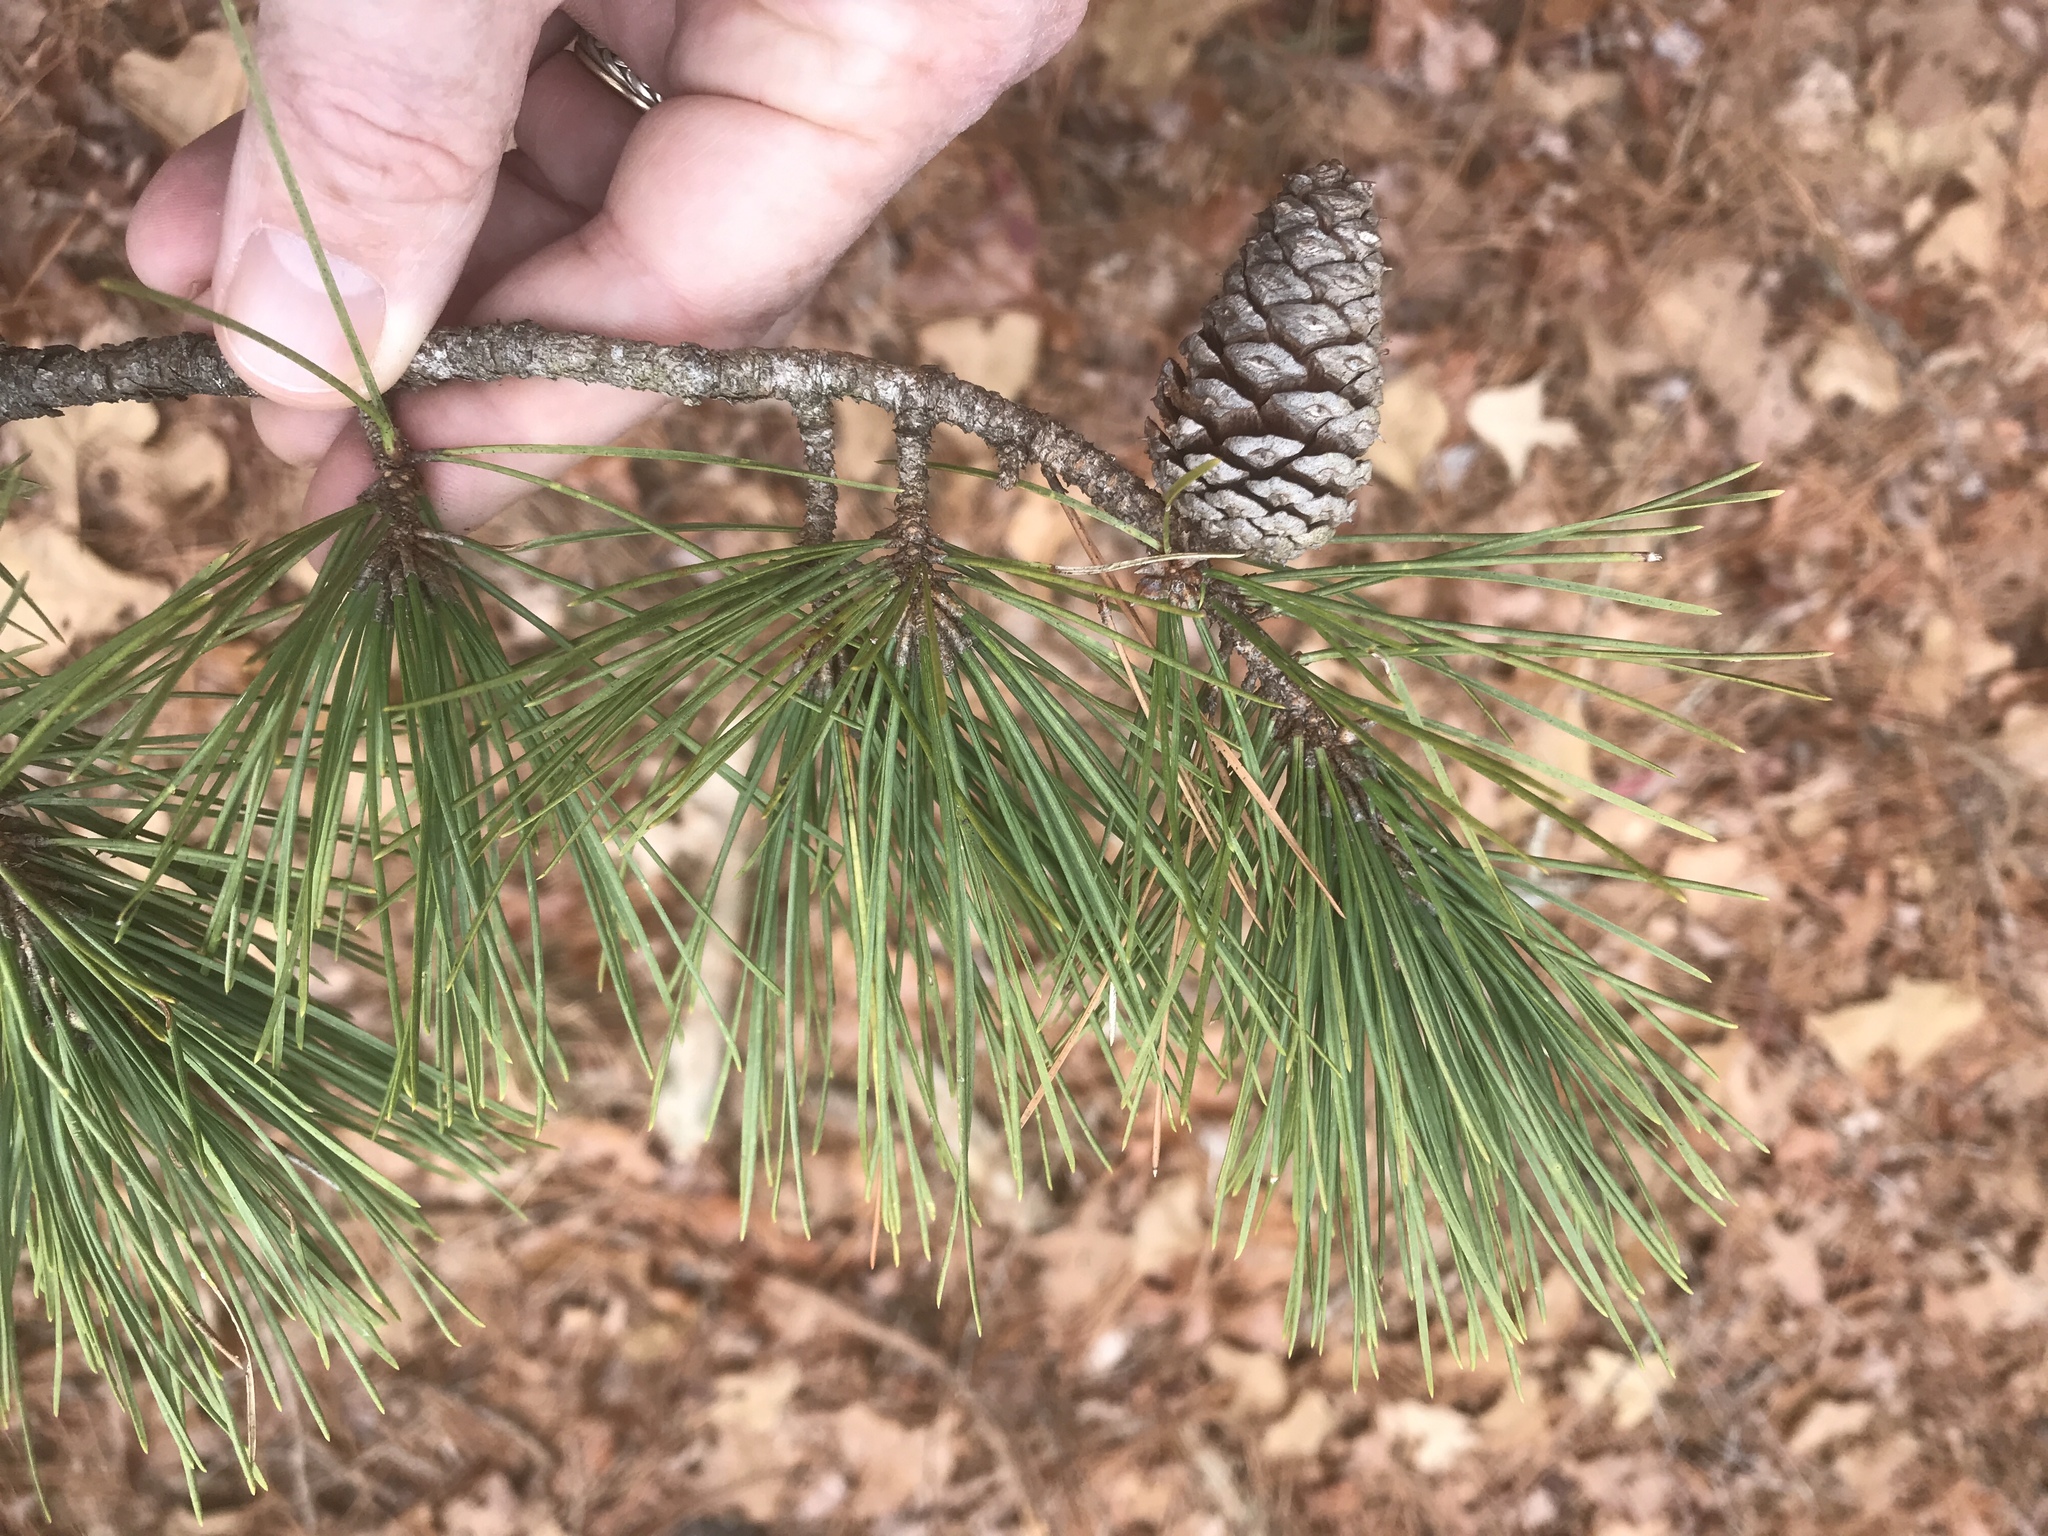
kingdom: Plantae
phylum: Tracheophyta
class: Pinopsida
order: Pinales
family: Pinaceae
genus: Pinus
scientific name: Pinus echinata
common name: Shortleaf pine
